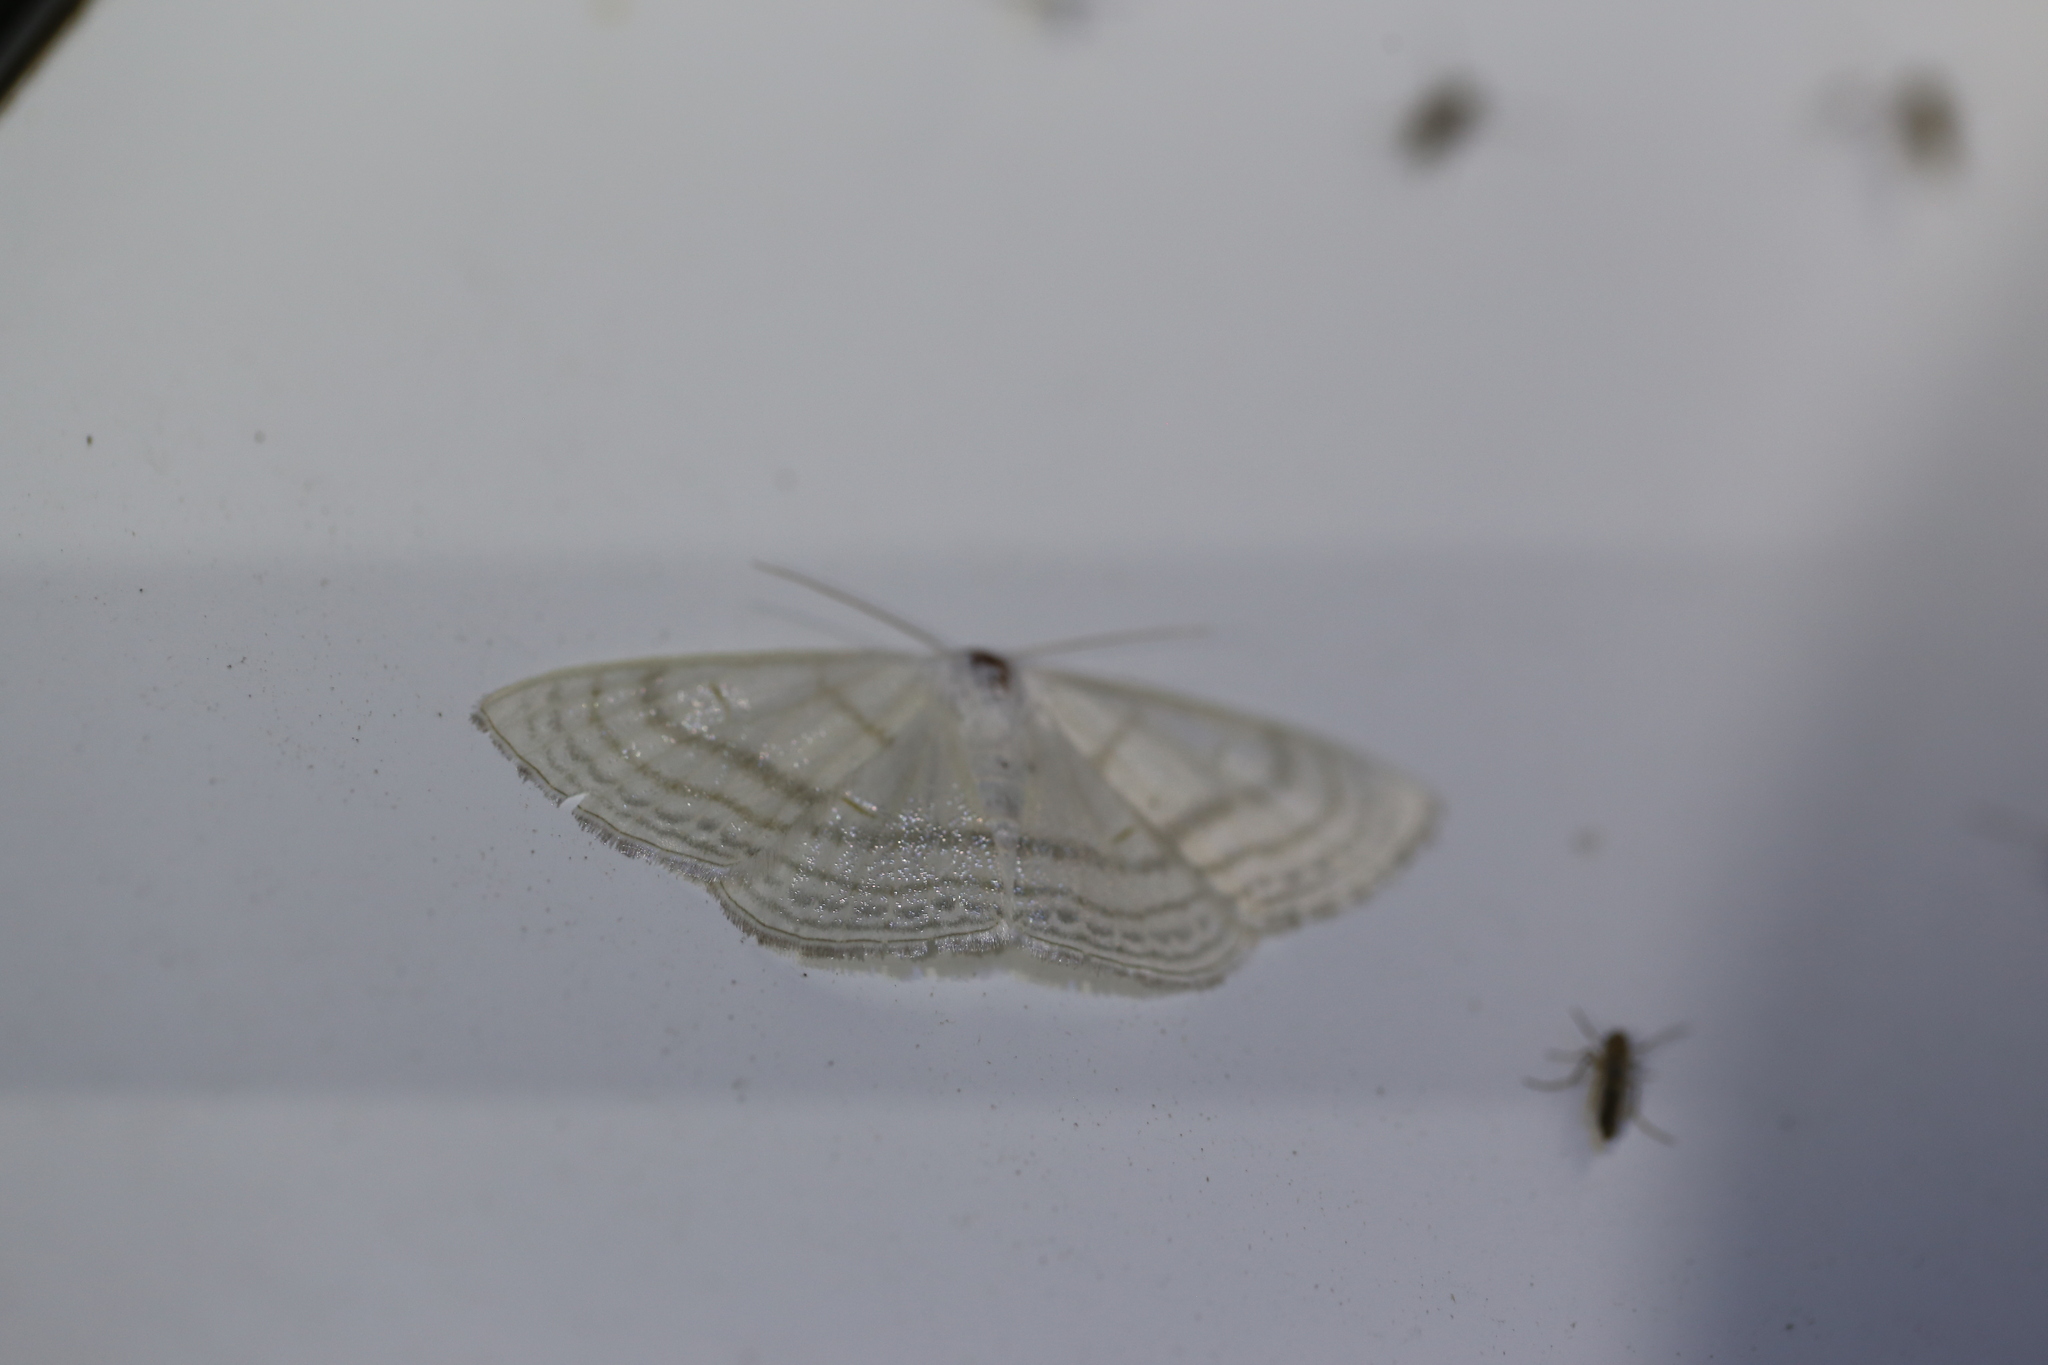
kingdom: Animalia
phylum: Arthropoda
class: Insecta
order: Lepidoptera
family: Geometridae
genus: Problepsis
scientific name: Problepsis clemens
